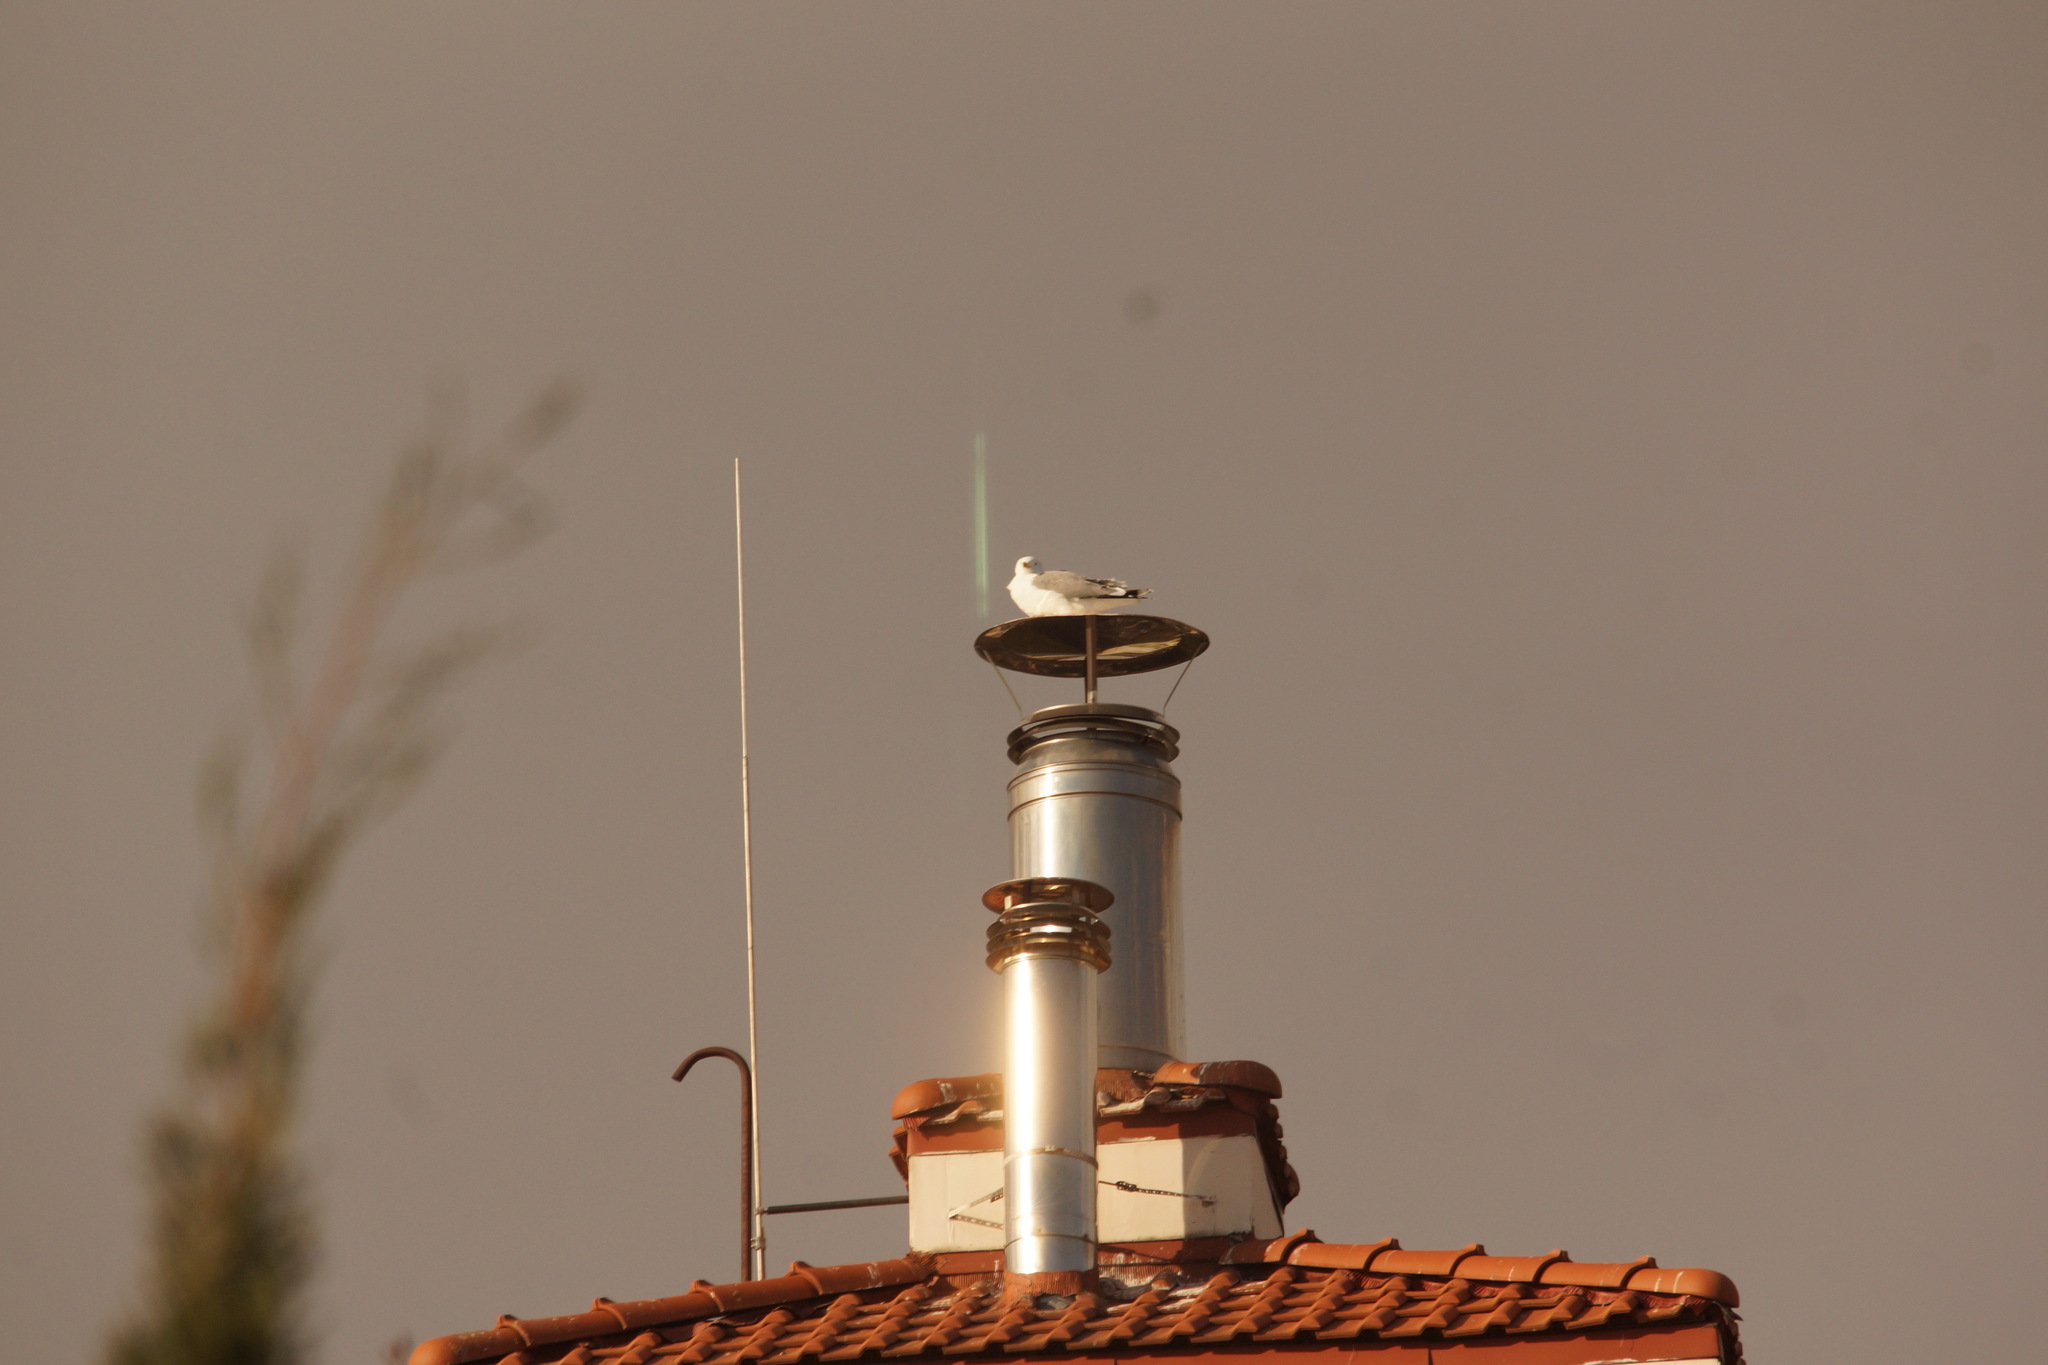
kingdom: Animalia
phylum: Chordata
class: Aves
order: Charadriiformes
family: Laridae
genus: Larus
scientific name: Larus michahellis
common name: Yellow-legged gull
